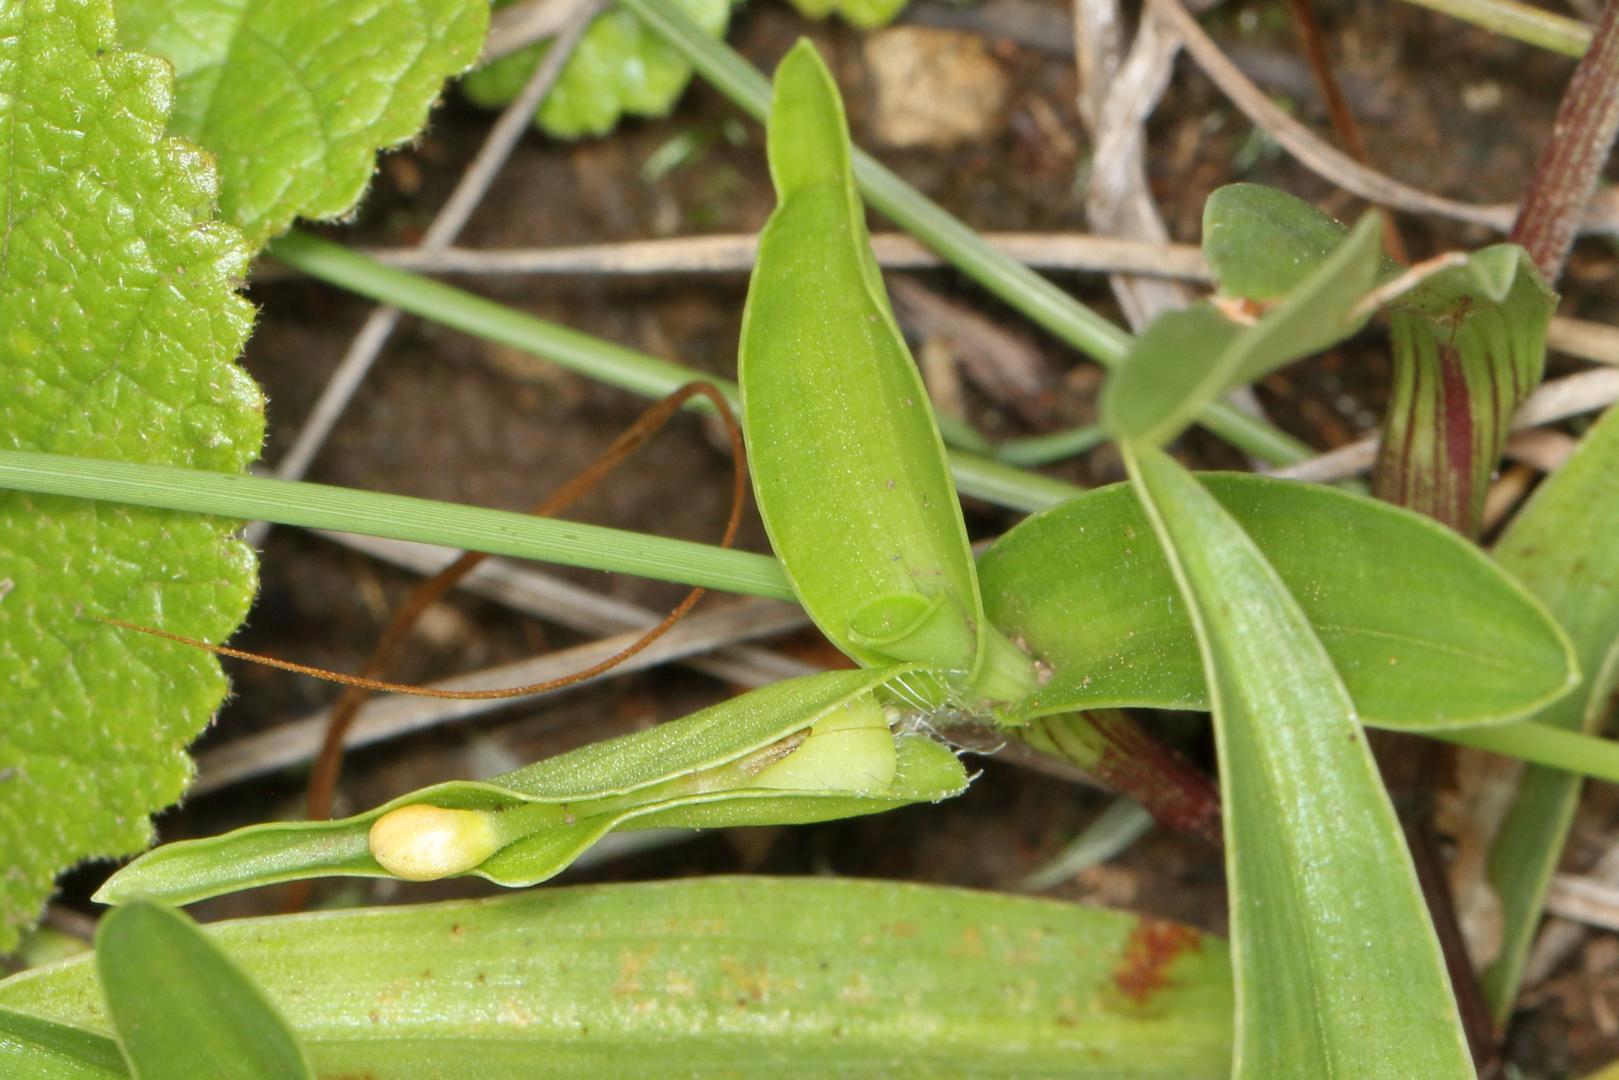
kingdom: Plantae
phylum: Tracheophyta
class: Liliopsida
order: Commelinales
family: Commelinaceae
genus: Commelina
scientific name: Commelina africana
